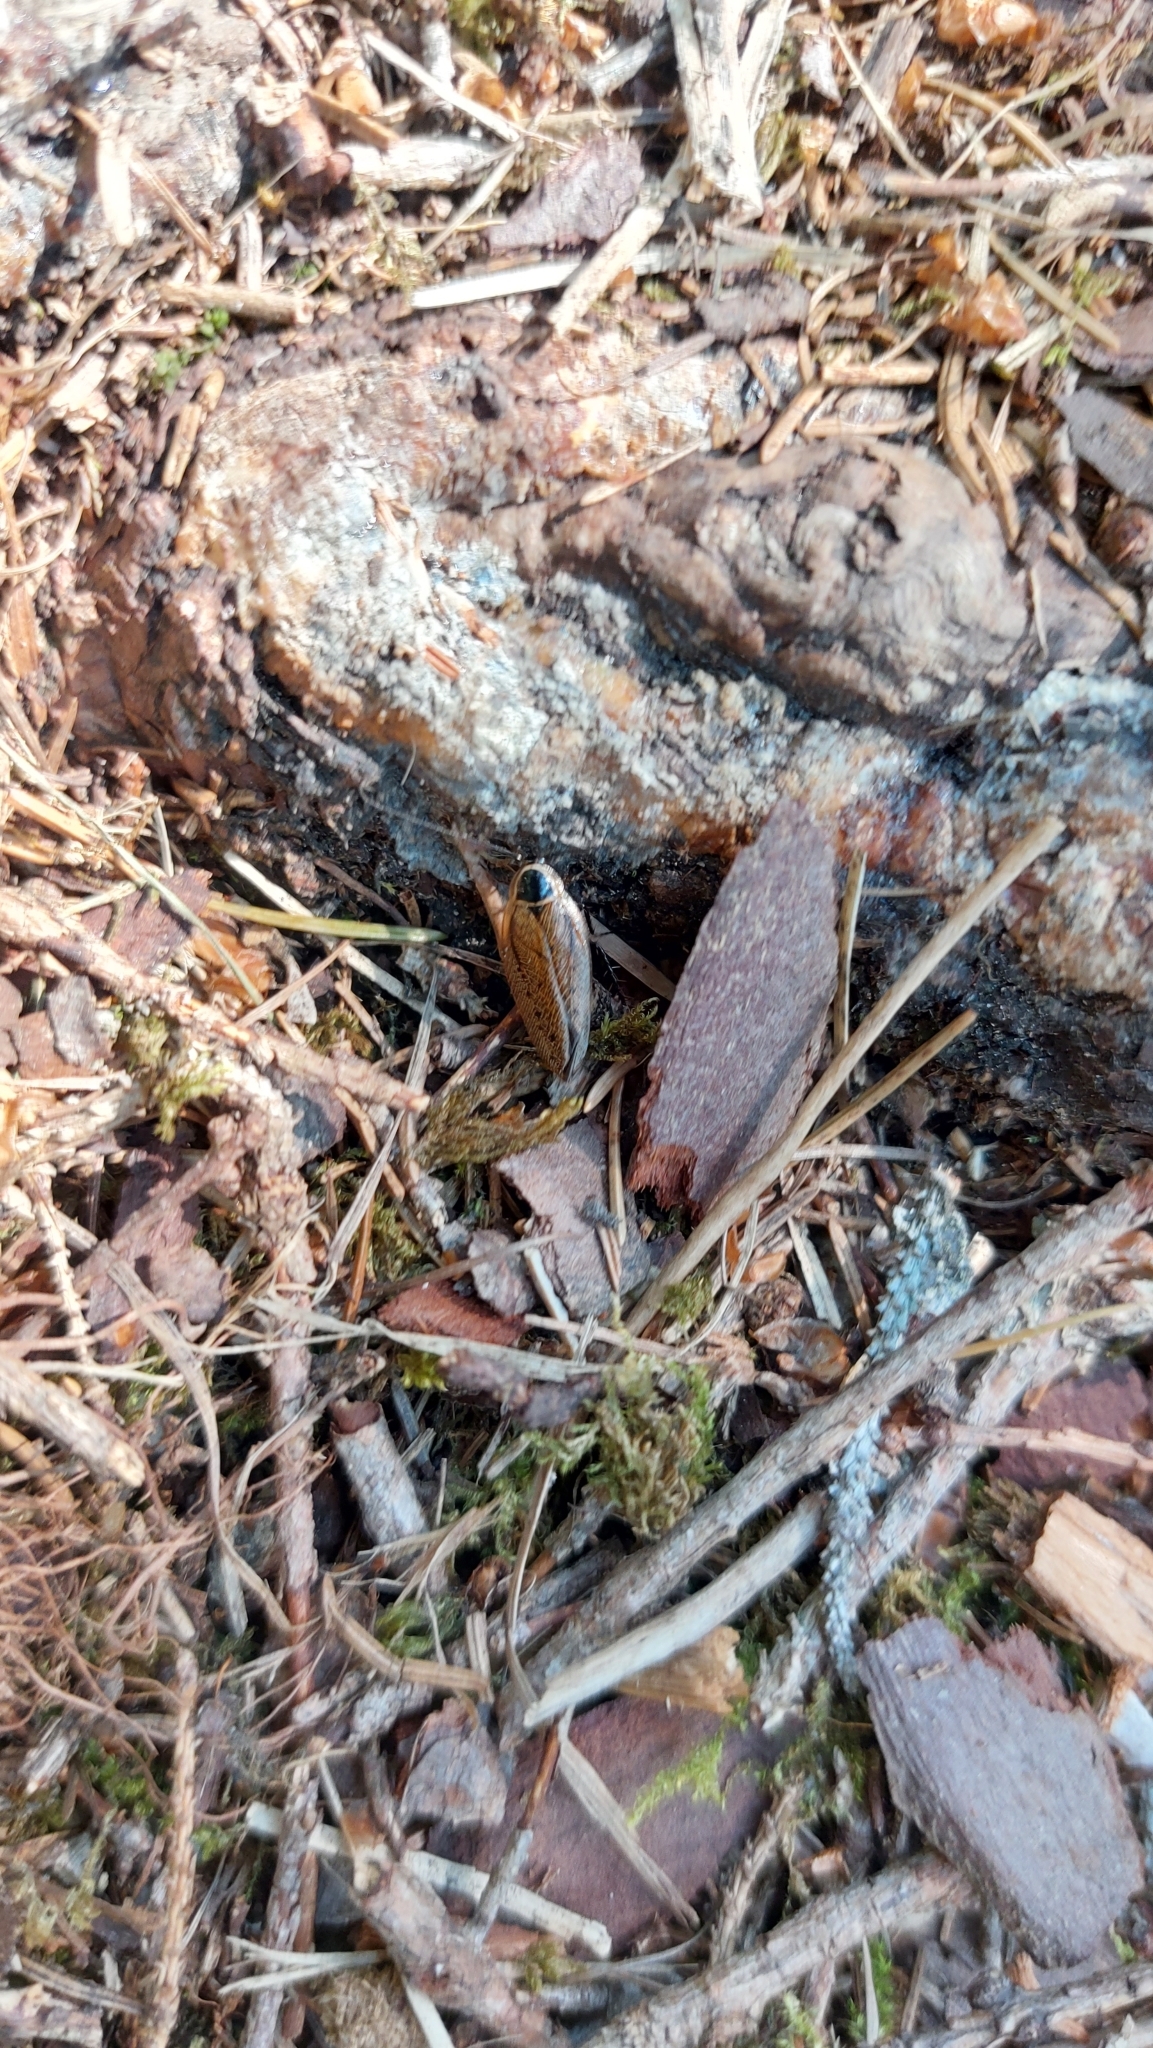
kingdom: Animalia
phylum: Arthropoda
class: Insecta
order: Blattodea
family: Ectobiidae
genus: Ectobius
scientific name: Ectobius sylvestris
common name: Forest cockroach
